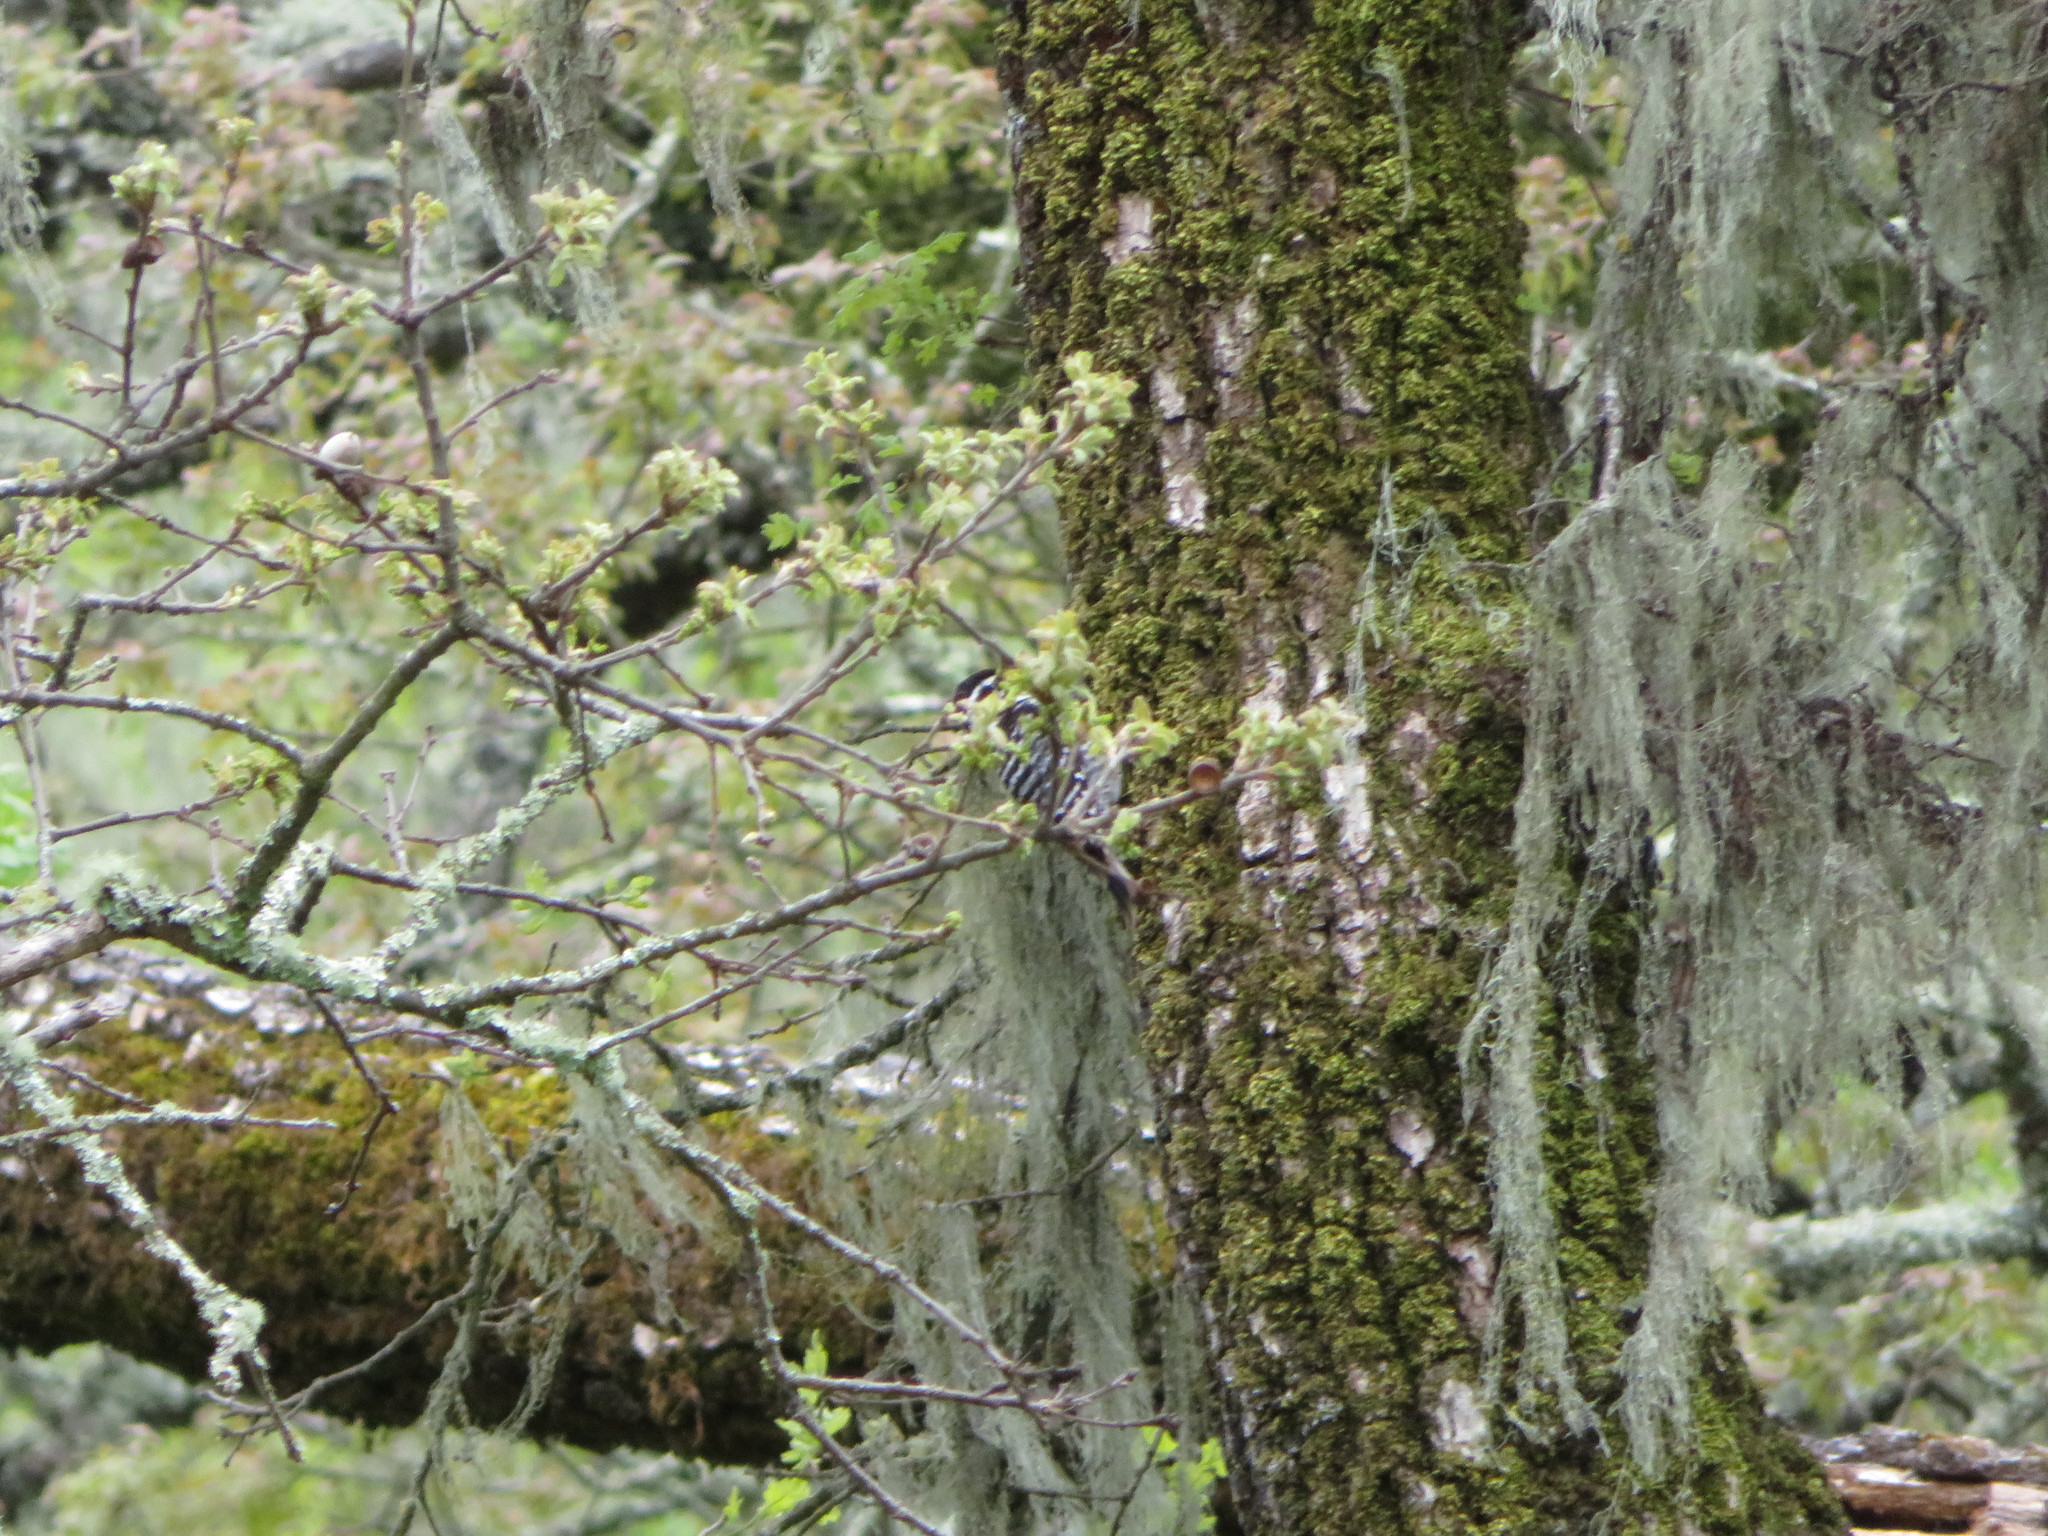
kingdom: Animalia
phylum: Chordata
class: Aves
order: Piciformes
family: Picidae
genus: Dryobates
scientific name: Dryobates nuttallii
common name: Nuttall's woodpecker
